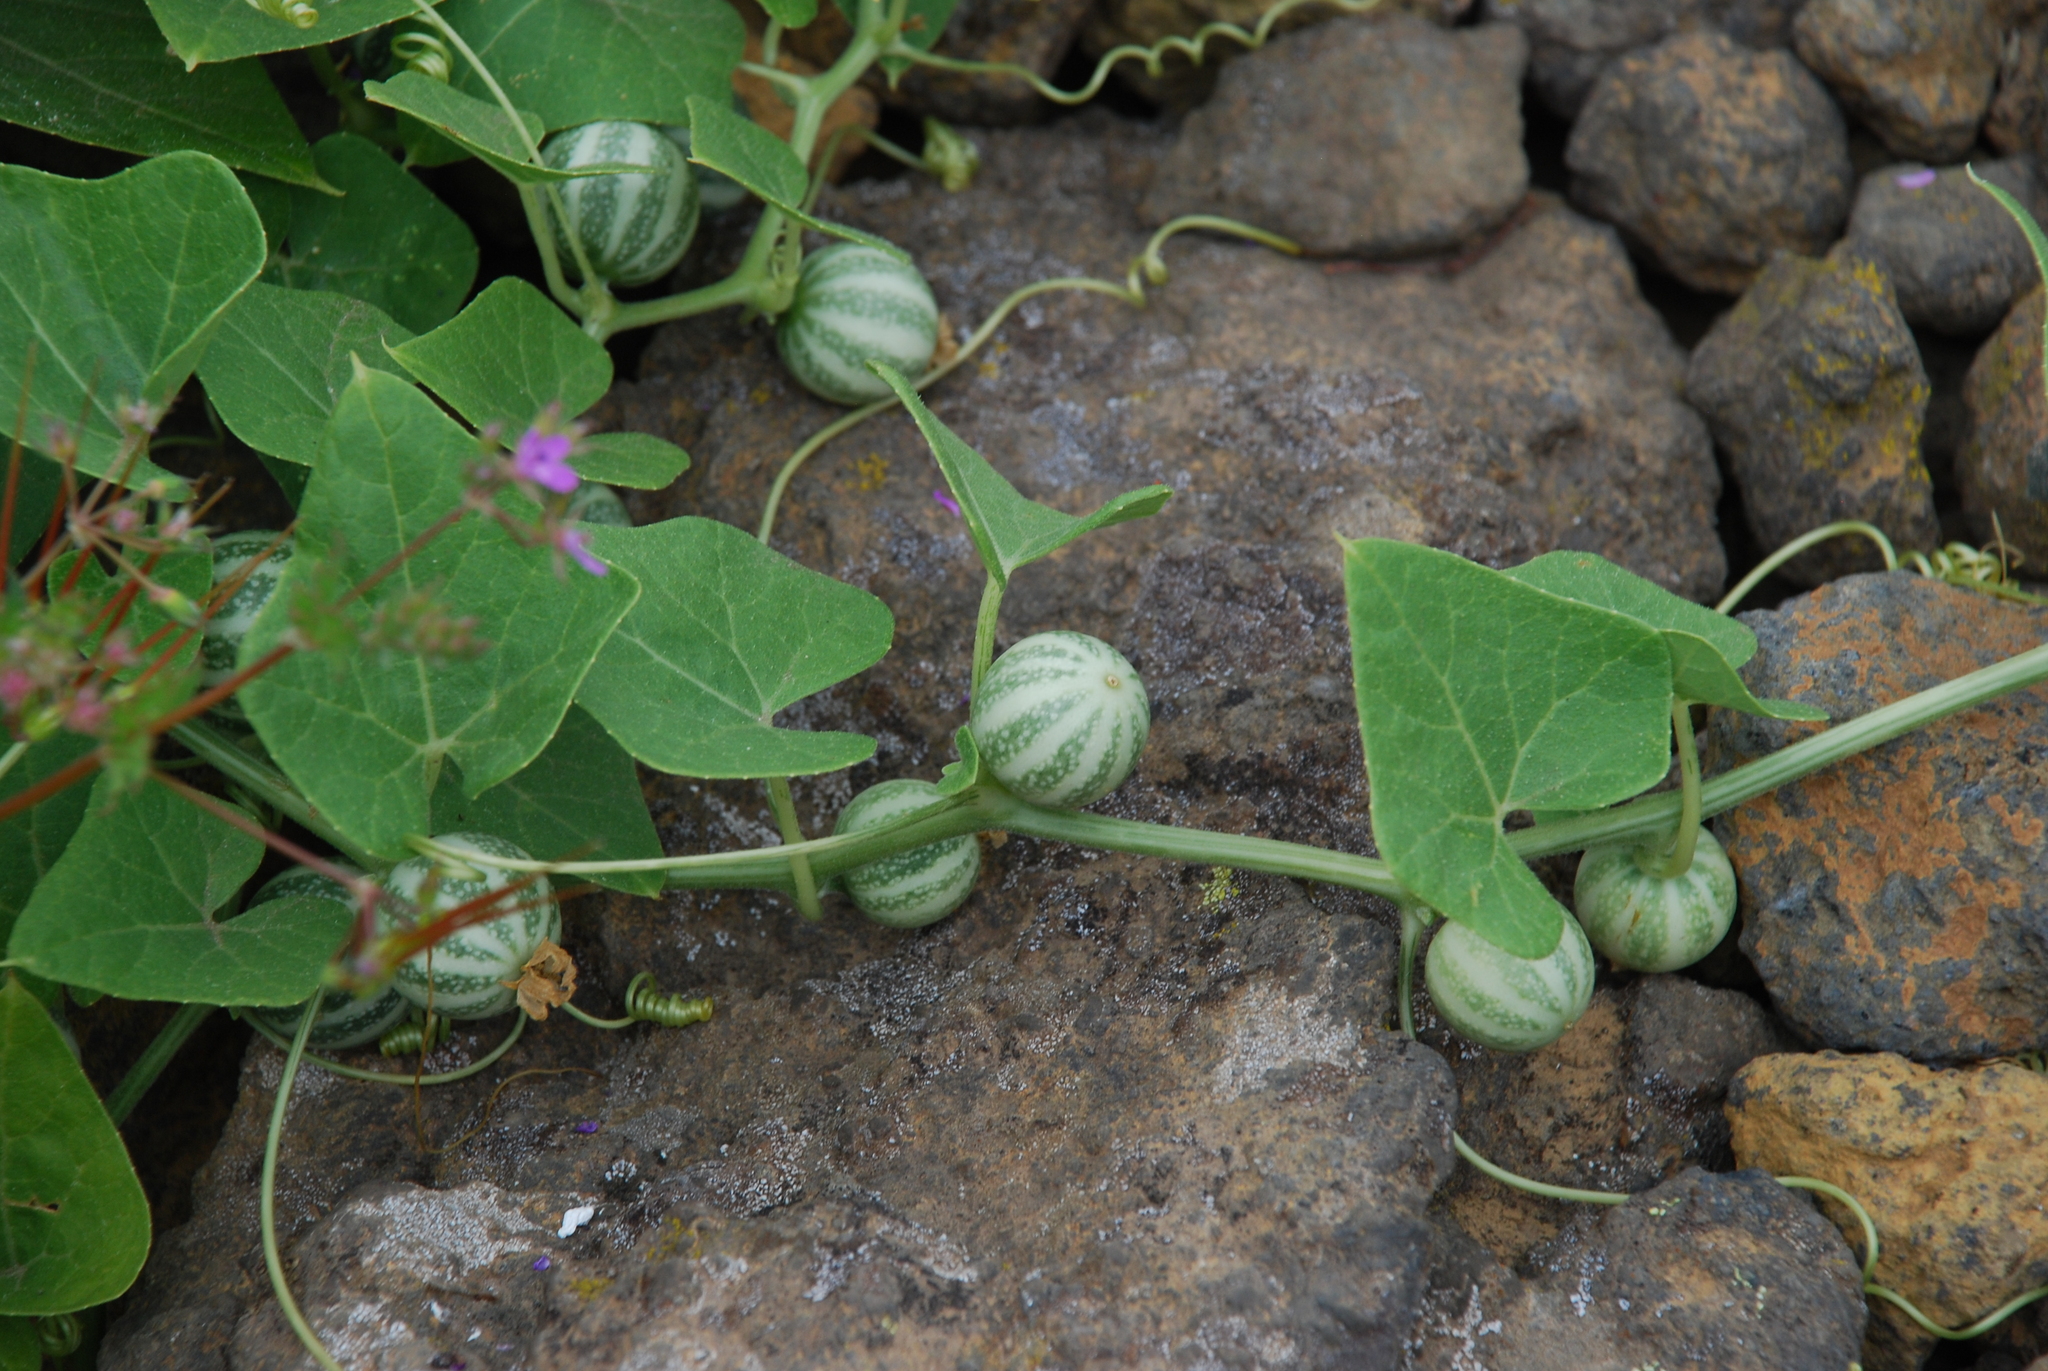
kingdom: Plantae
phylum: Tracheophyta
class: Magnoliopsida
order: Cucurbitales
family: Cucurbitaceae
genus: Bryonia
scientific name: Bryonia verrucosa
